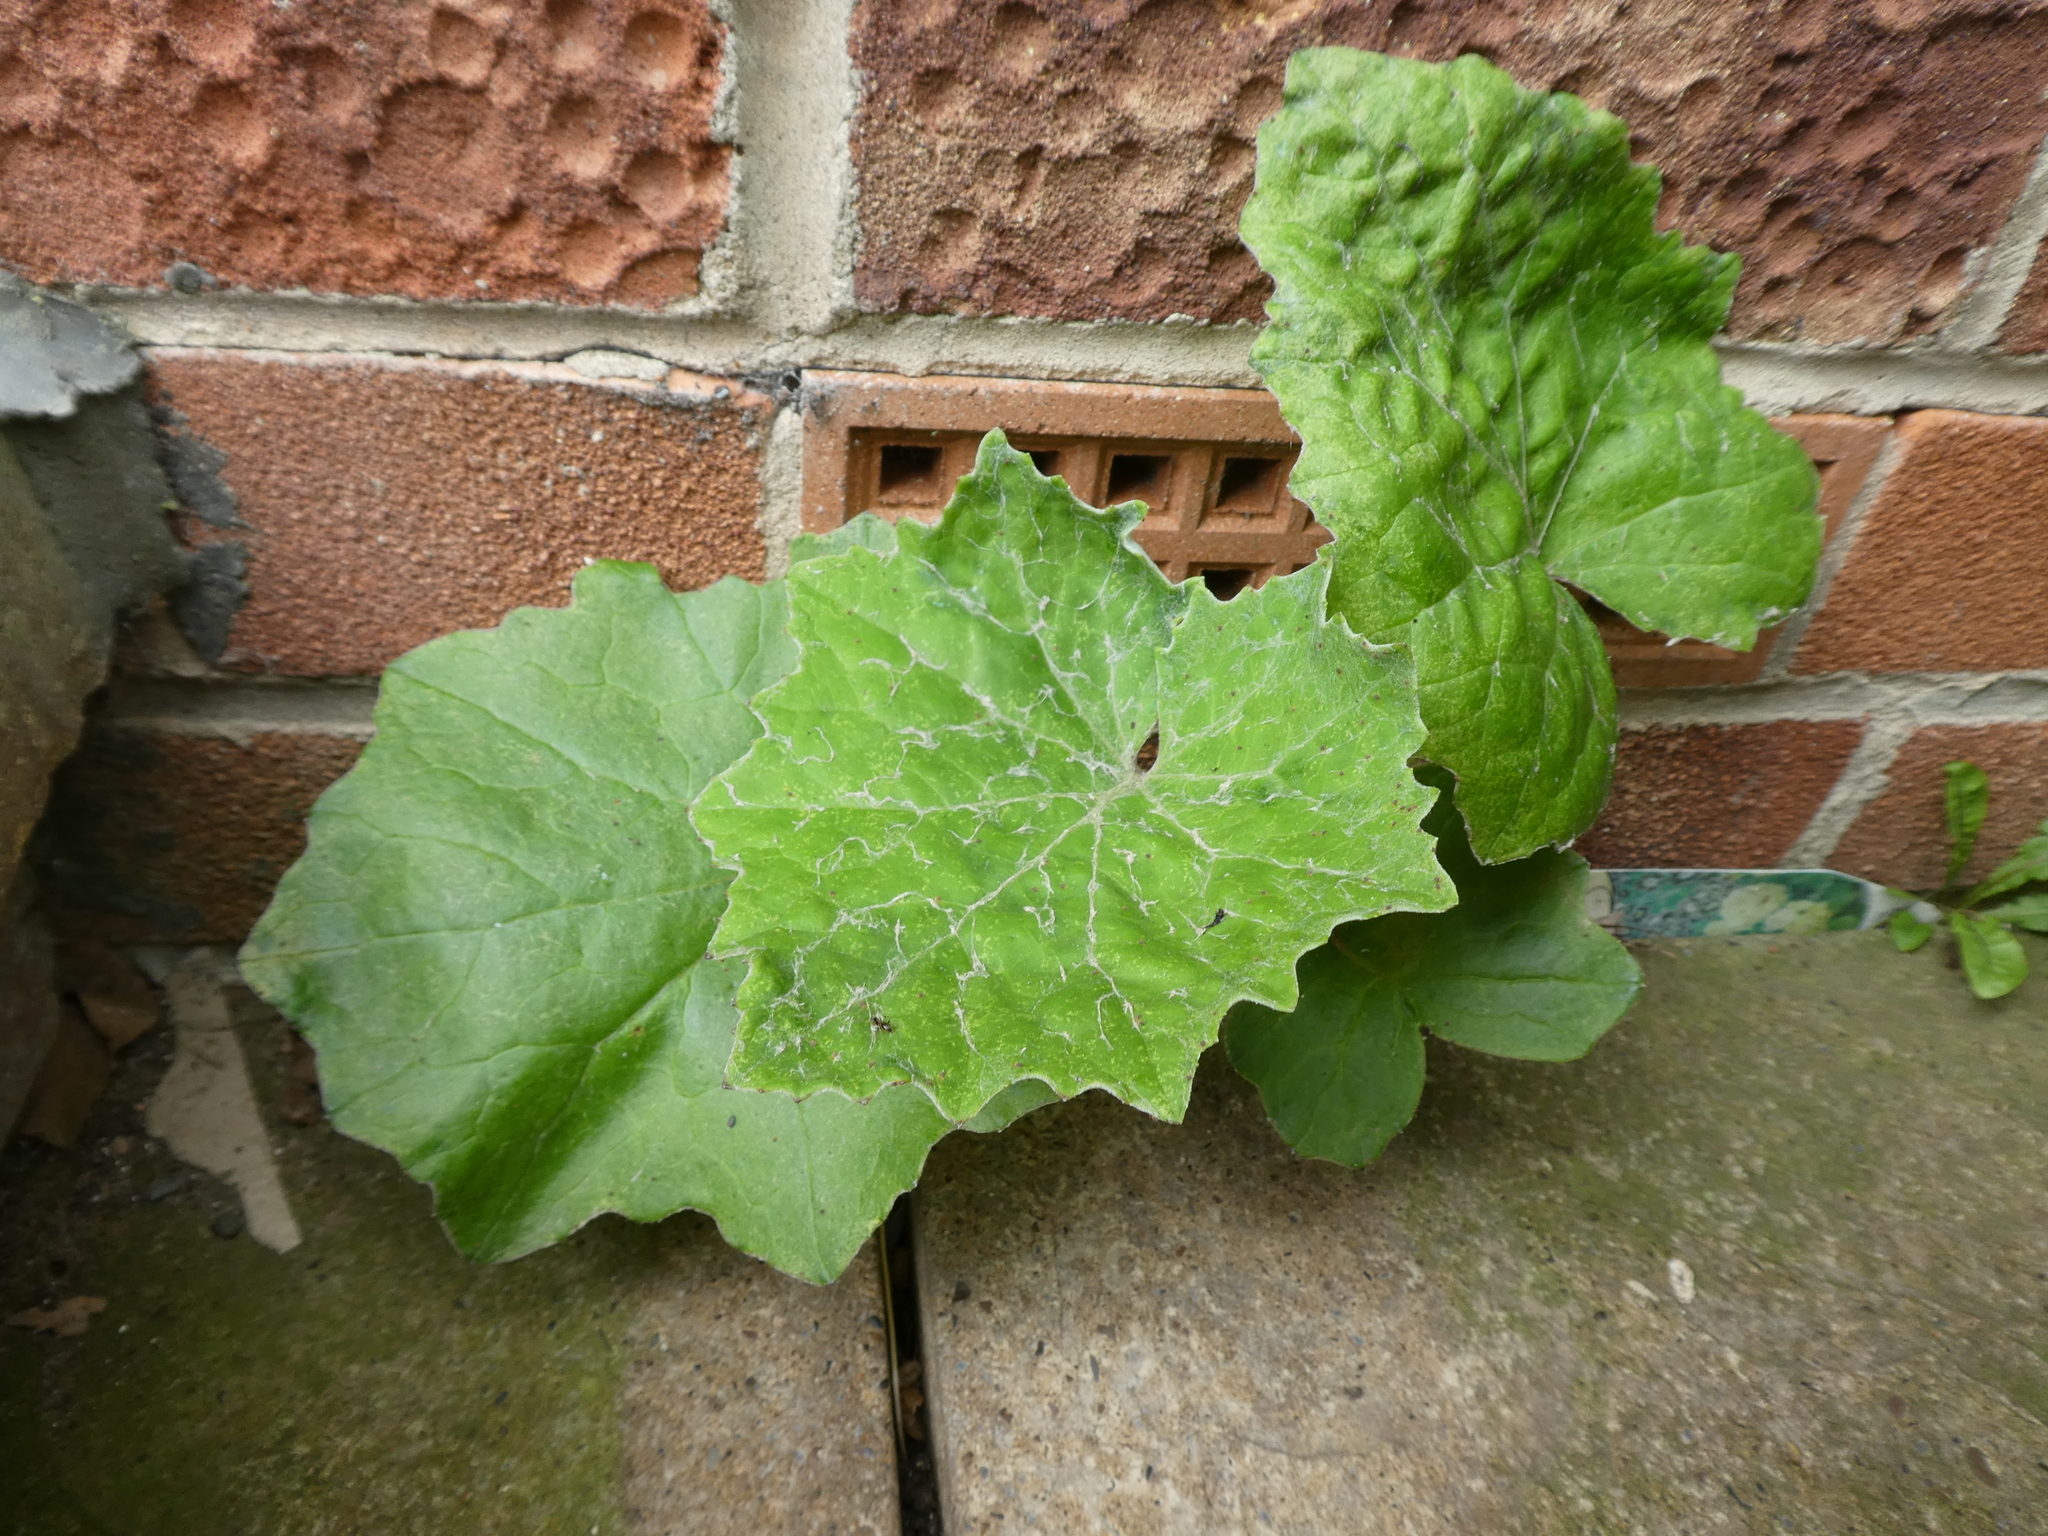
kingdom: Plantae
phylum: Tracheophyta
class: Magnoliopsida
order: Asterales
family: Asteraceae
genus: Tussilago
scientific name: Tussilago farfara
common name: Coltsfoot
